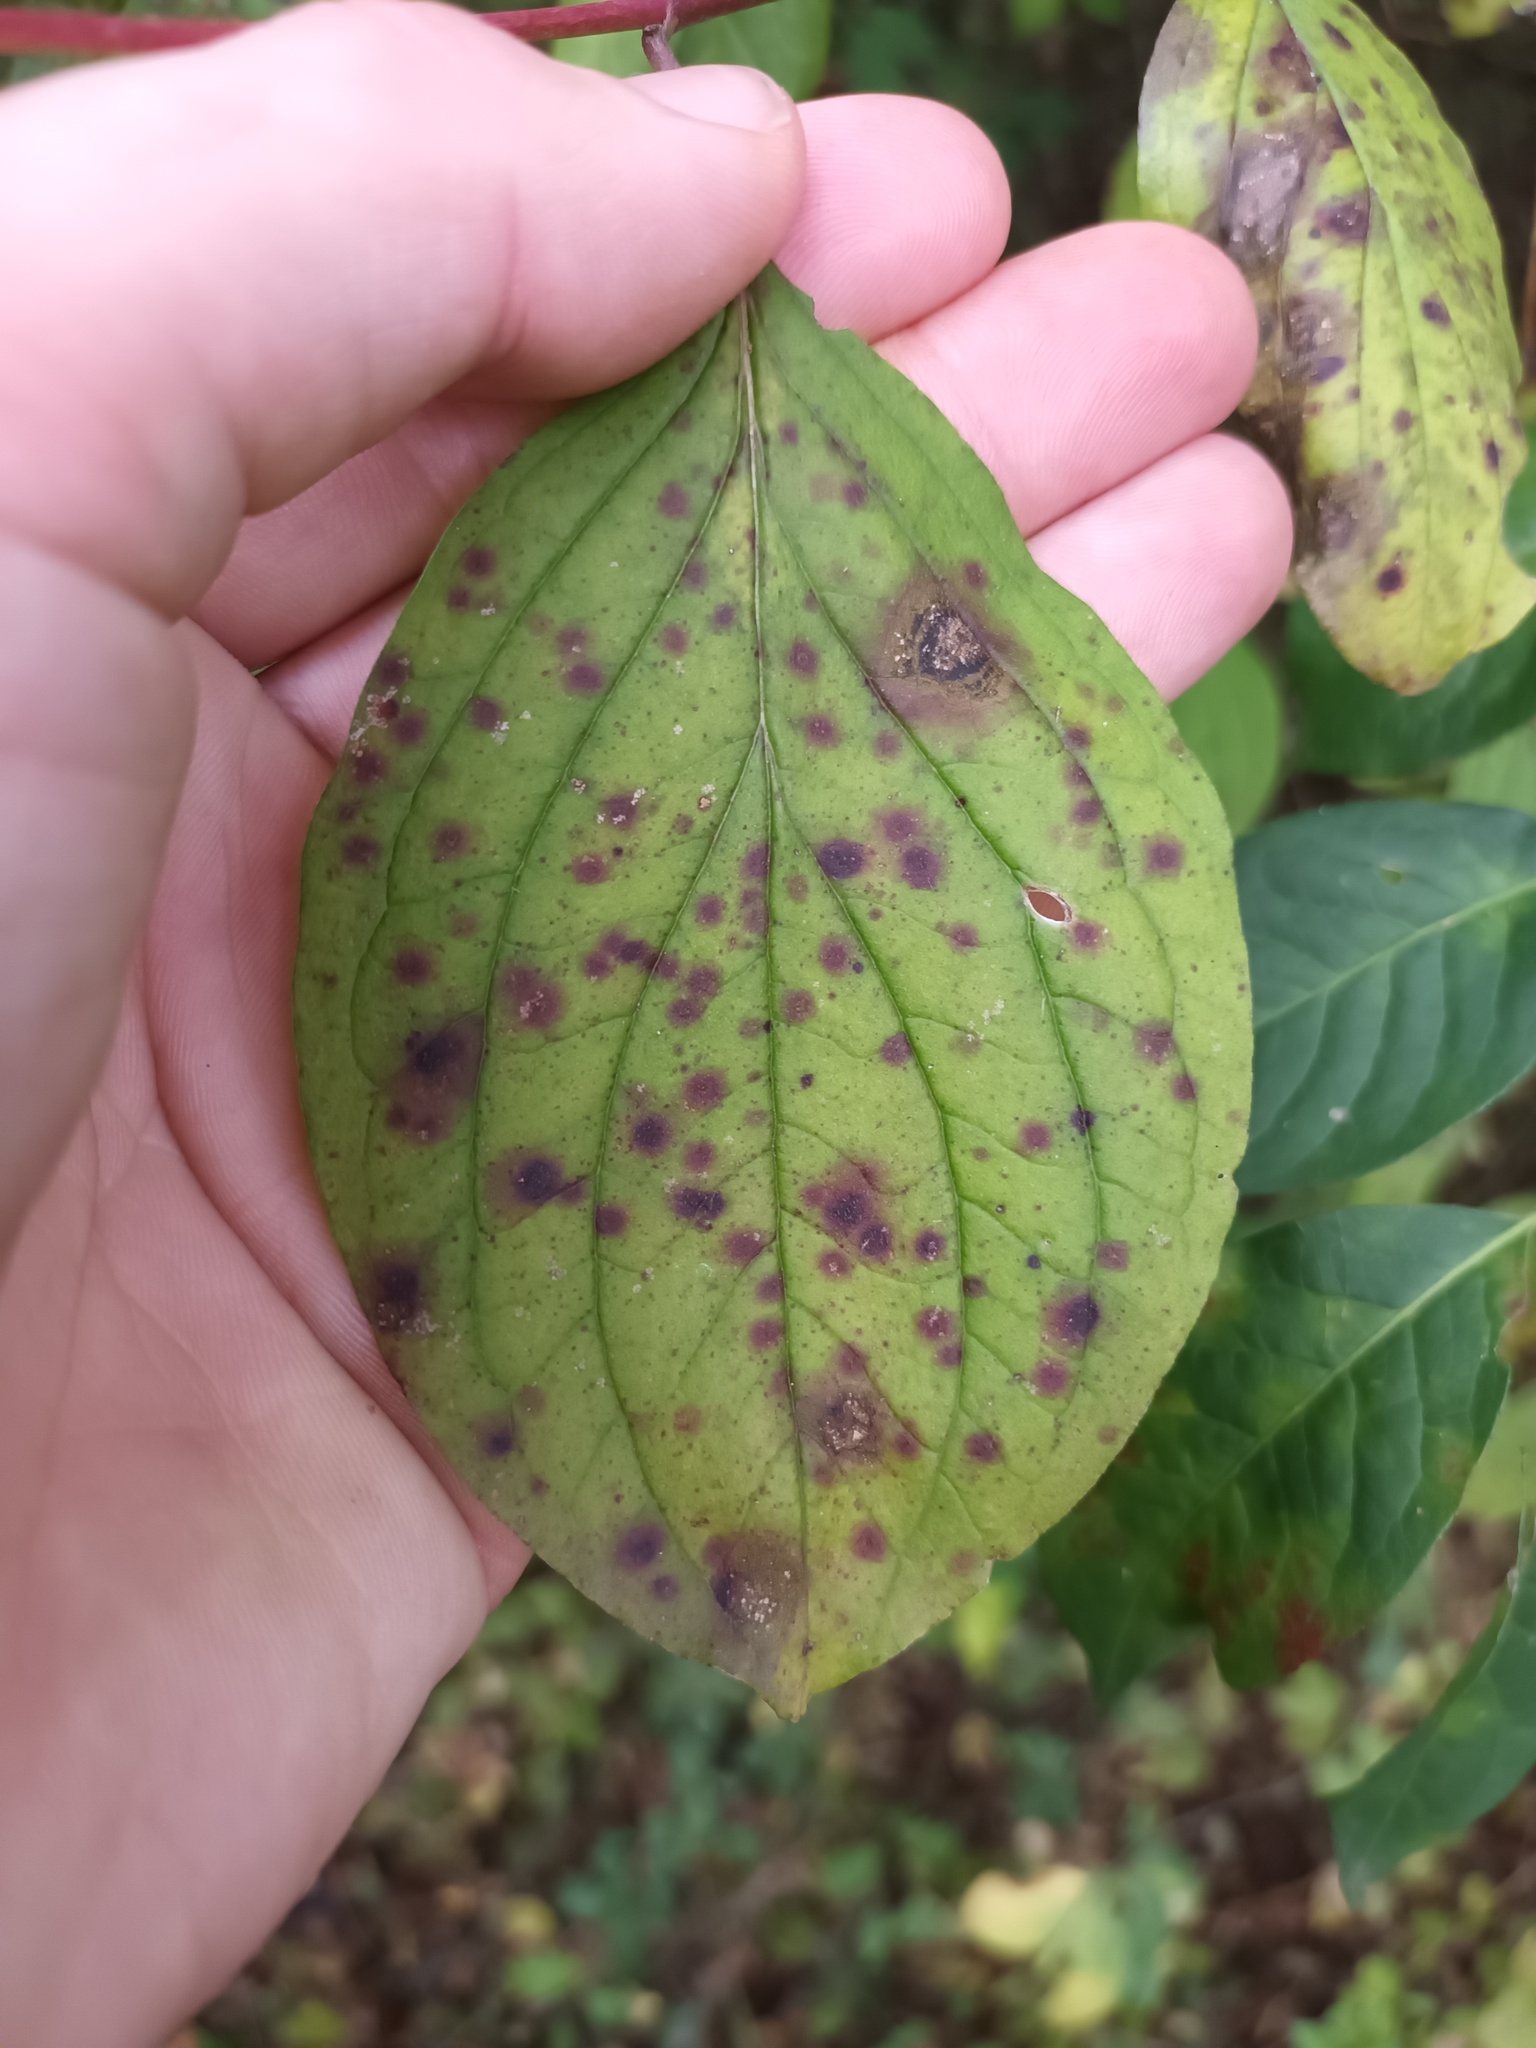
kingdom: Fungi
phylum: Ascomycota
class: Dothideomycetes
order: Mycosphaerellales
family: Mycosphaerellaceae
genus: Sphaerulina
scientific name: Sphaerulina cornicola
